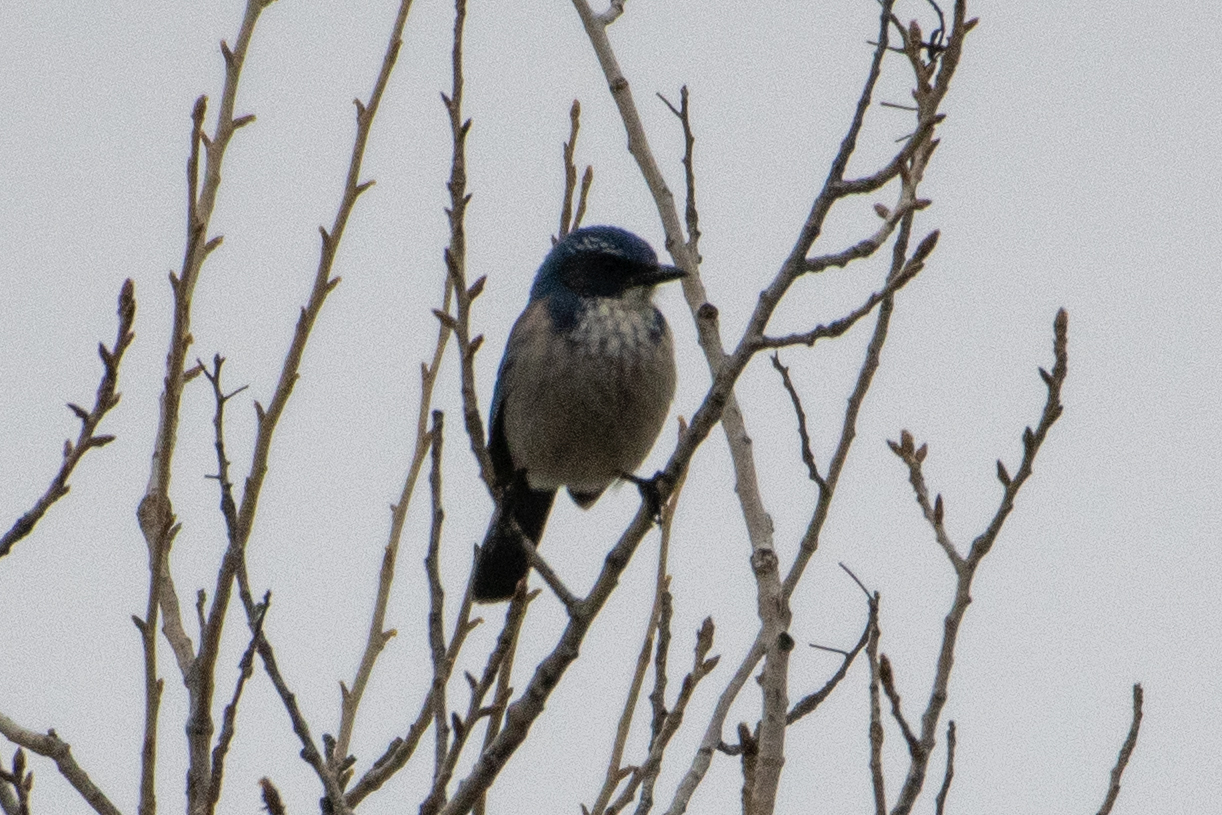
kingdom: Animalia
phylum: Chordata
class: Aves
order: Passeriformes
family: Corvidae
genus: Aphelocoma
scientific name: Aphelocoma californica
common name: California scrub-jay
